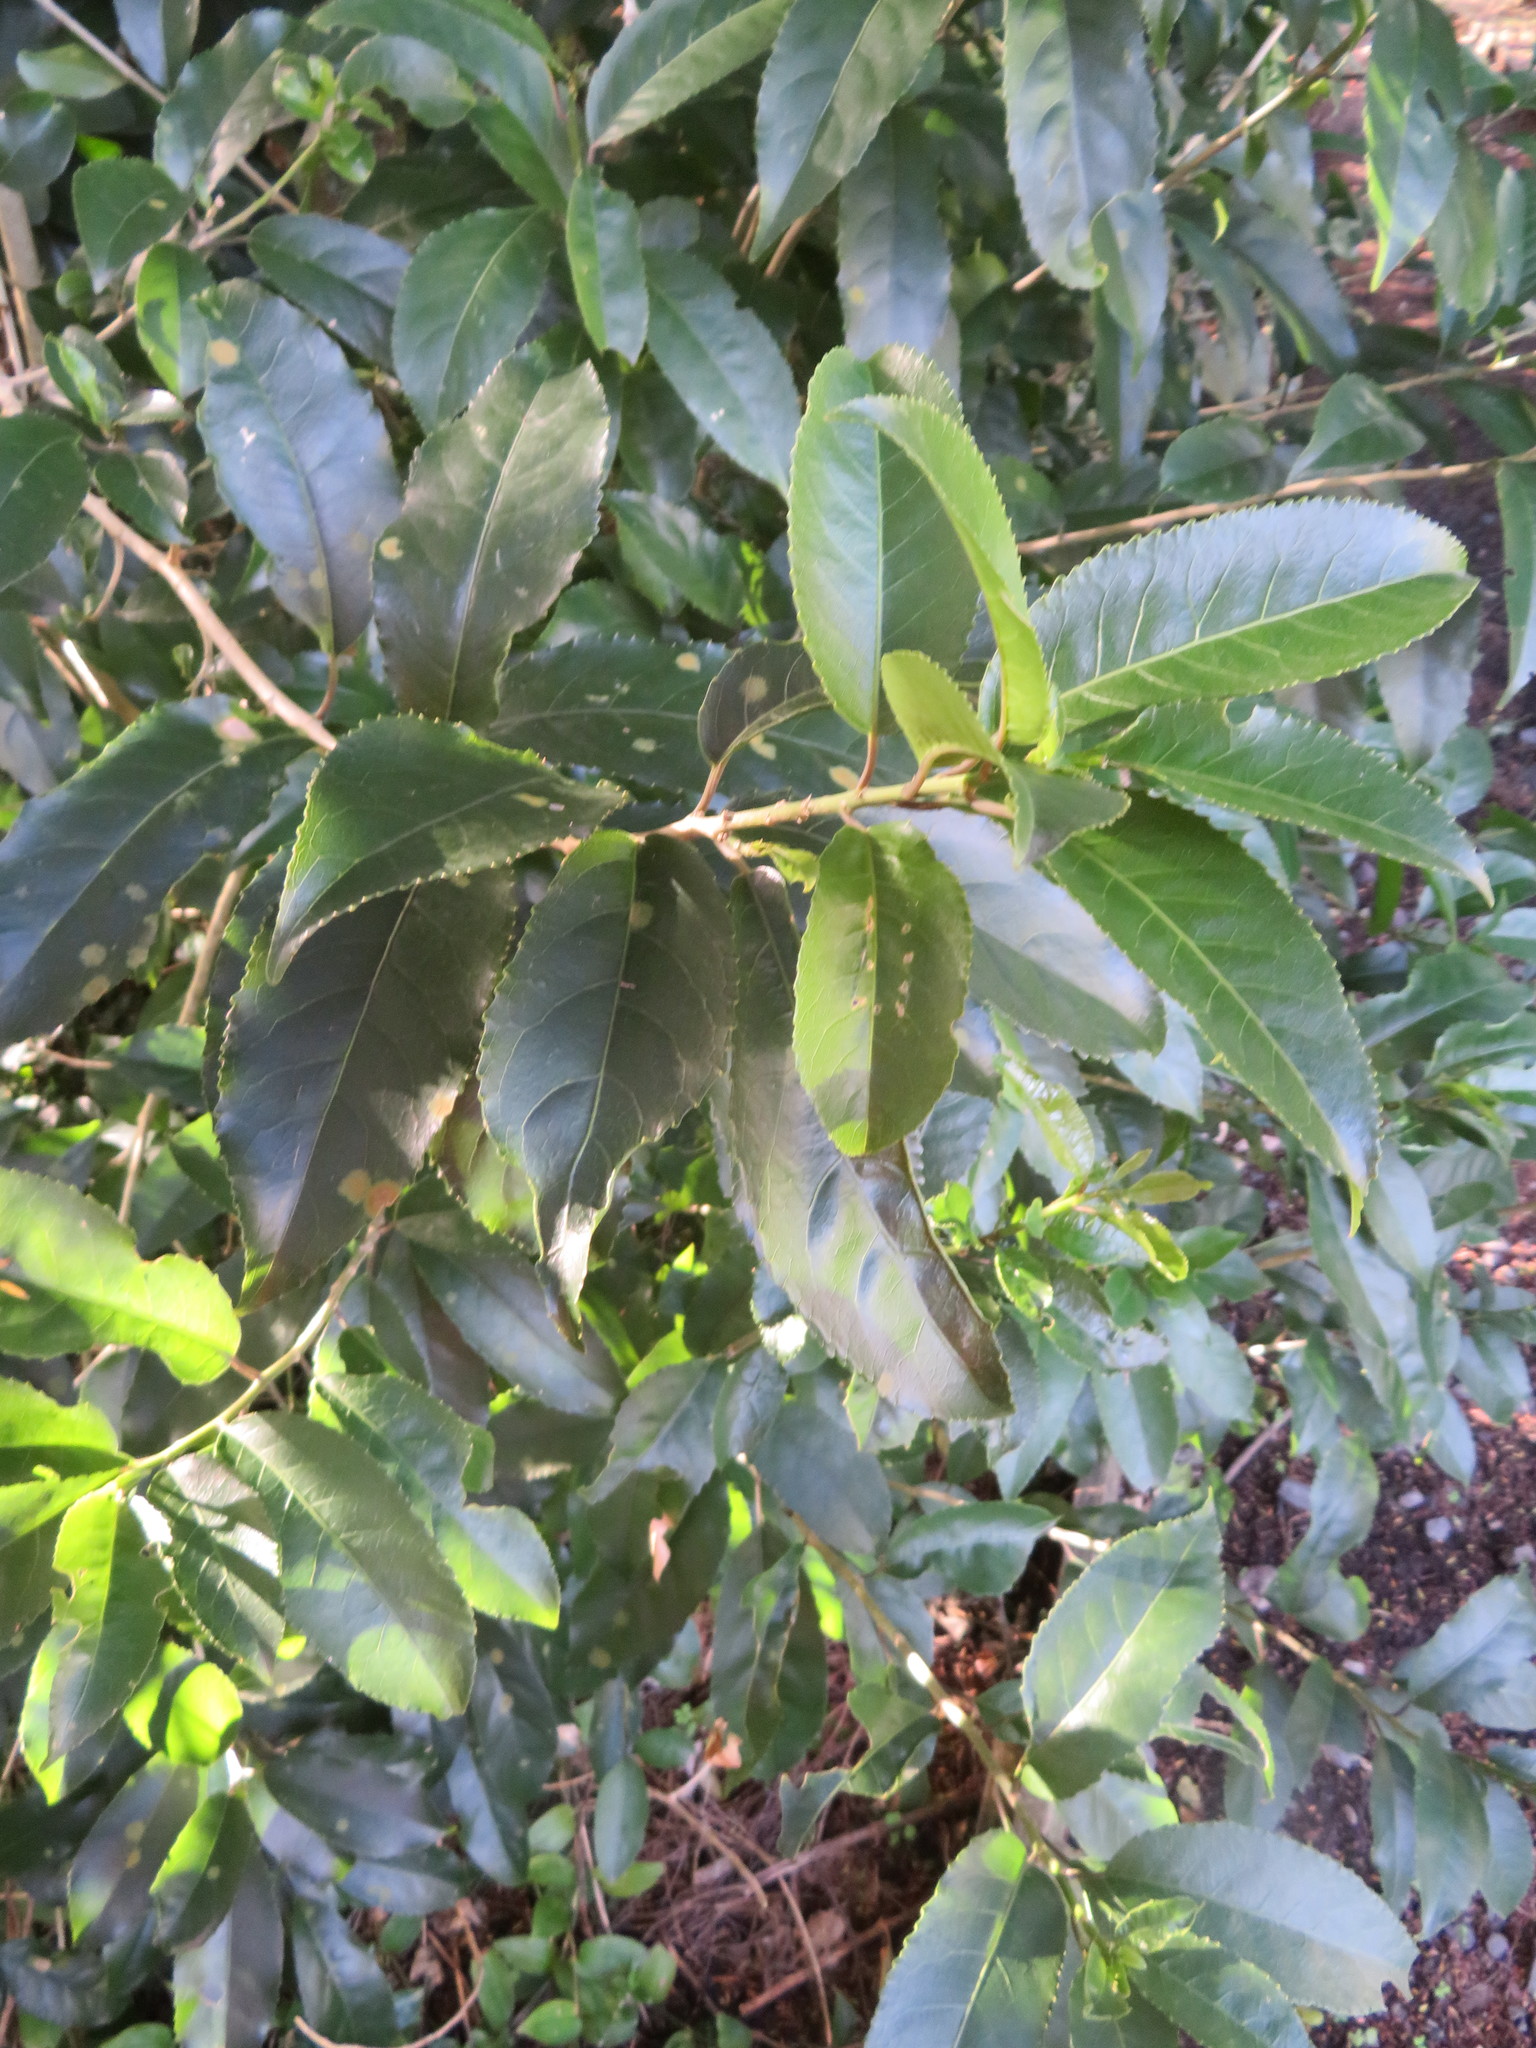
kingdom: Plantae
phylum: Tracheophyta
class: Magnoliopsida
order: Malpighiales
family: Violaceae
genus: Melicytus
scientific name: Melicytus ramiflorus
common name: Mahoe
